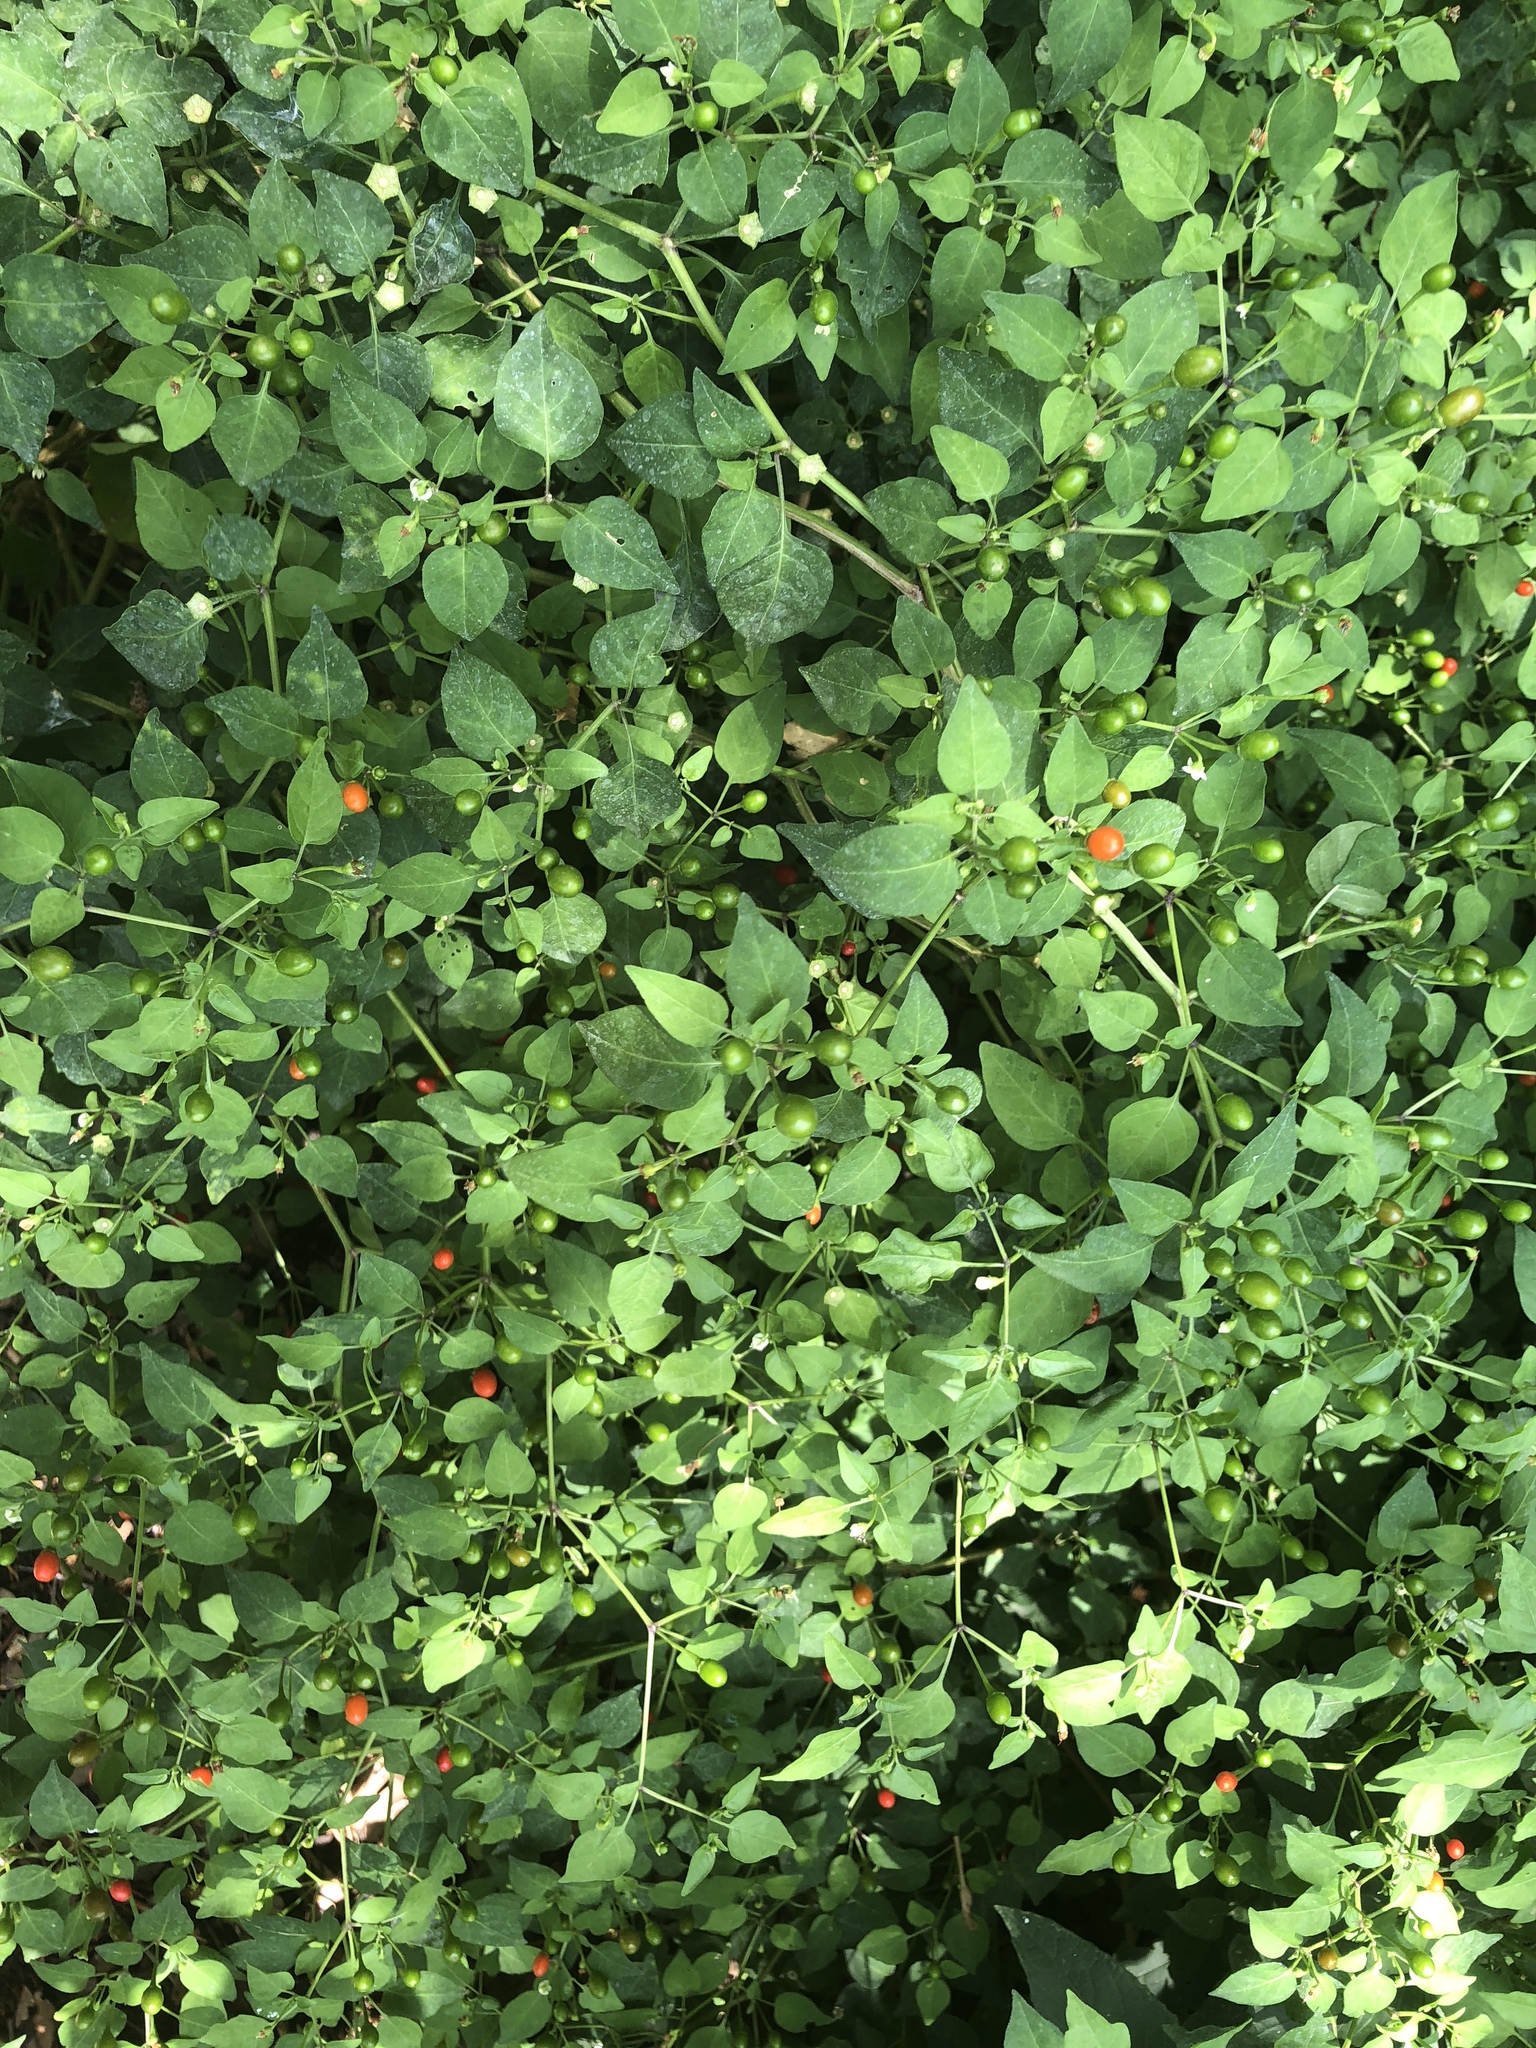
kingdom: Plantae
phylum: Tracheophyta
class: Magnoliopsida
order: Solanales
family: Solanaceae
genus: Capsicum
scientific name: Capsicum annuum
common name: Sweet pepper
